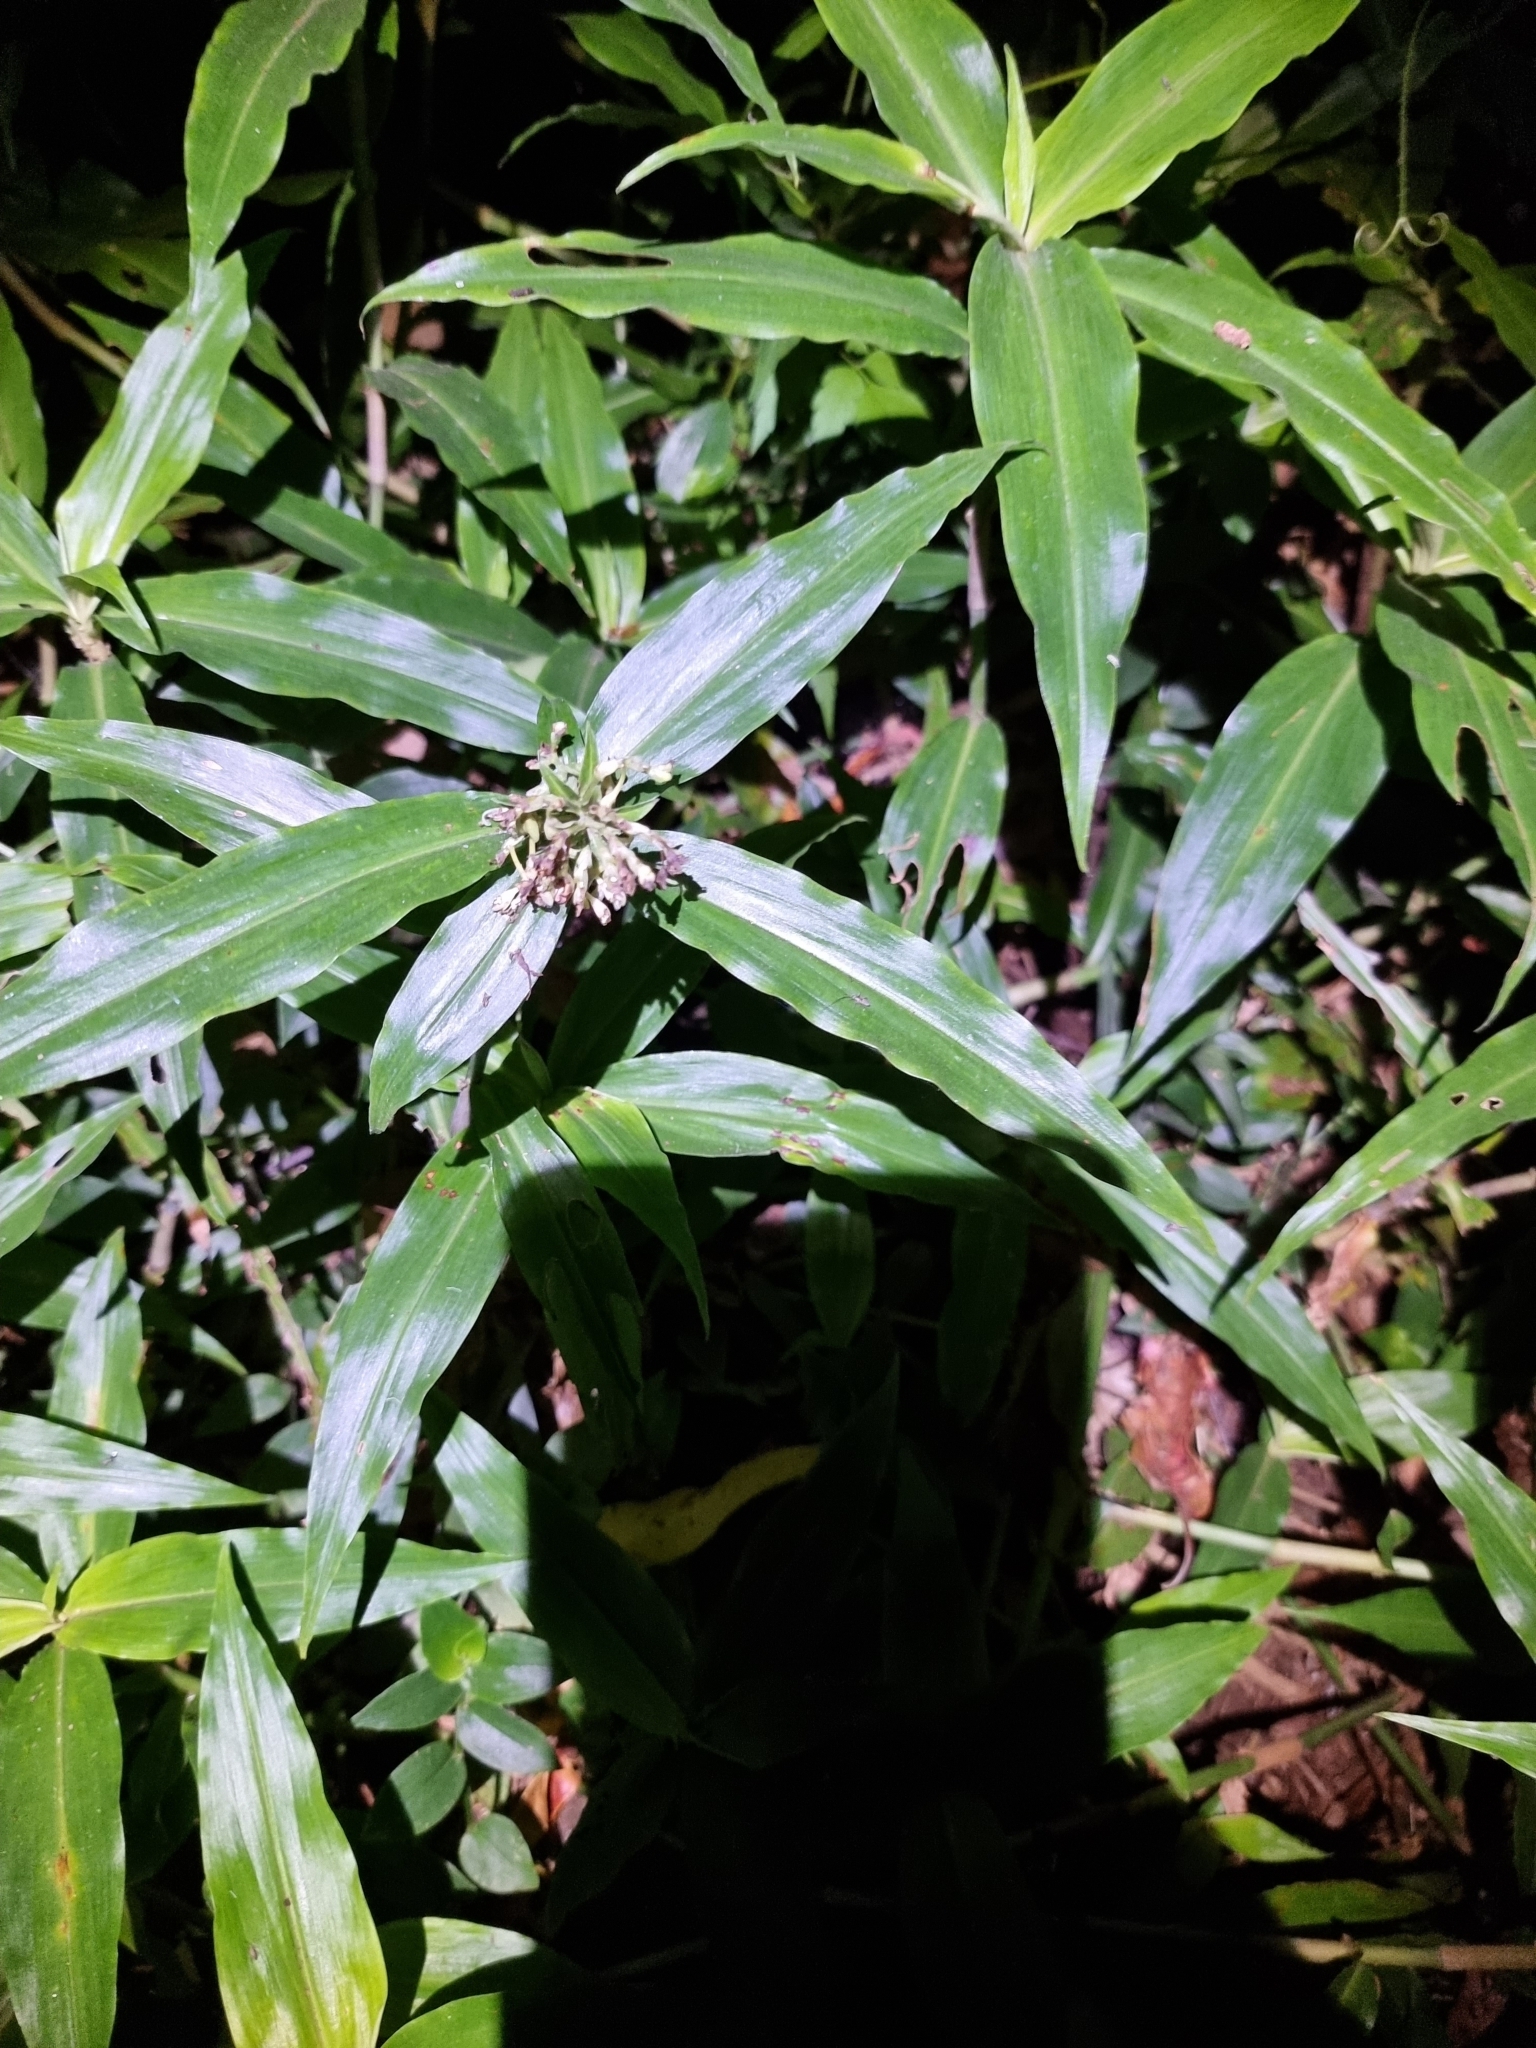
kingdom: Plantae
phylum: Tracheophyta
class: Liliopsida
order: Commelinales
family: Commelinaceae
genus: Pollia
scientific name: Pollia crispata
